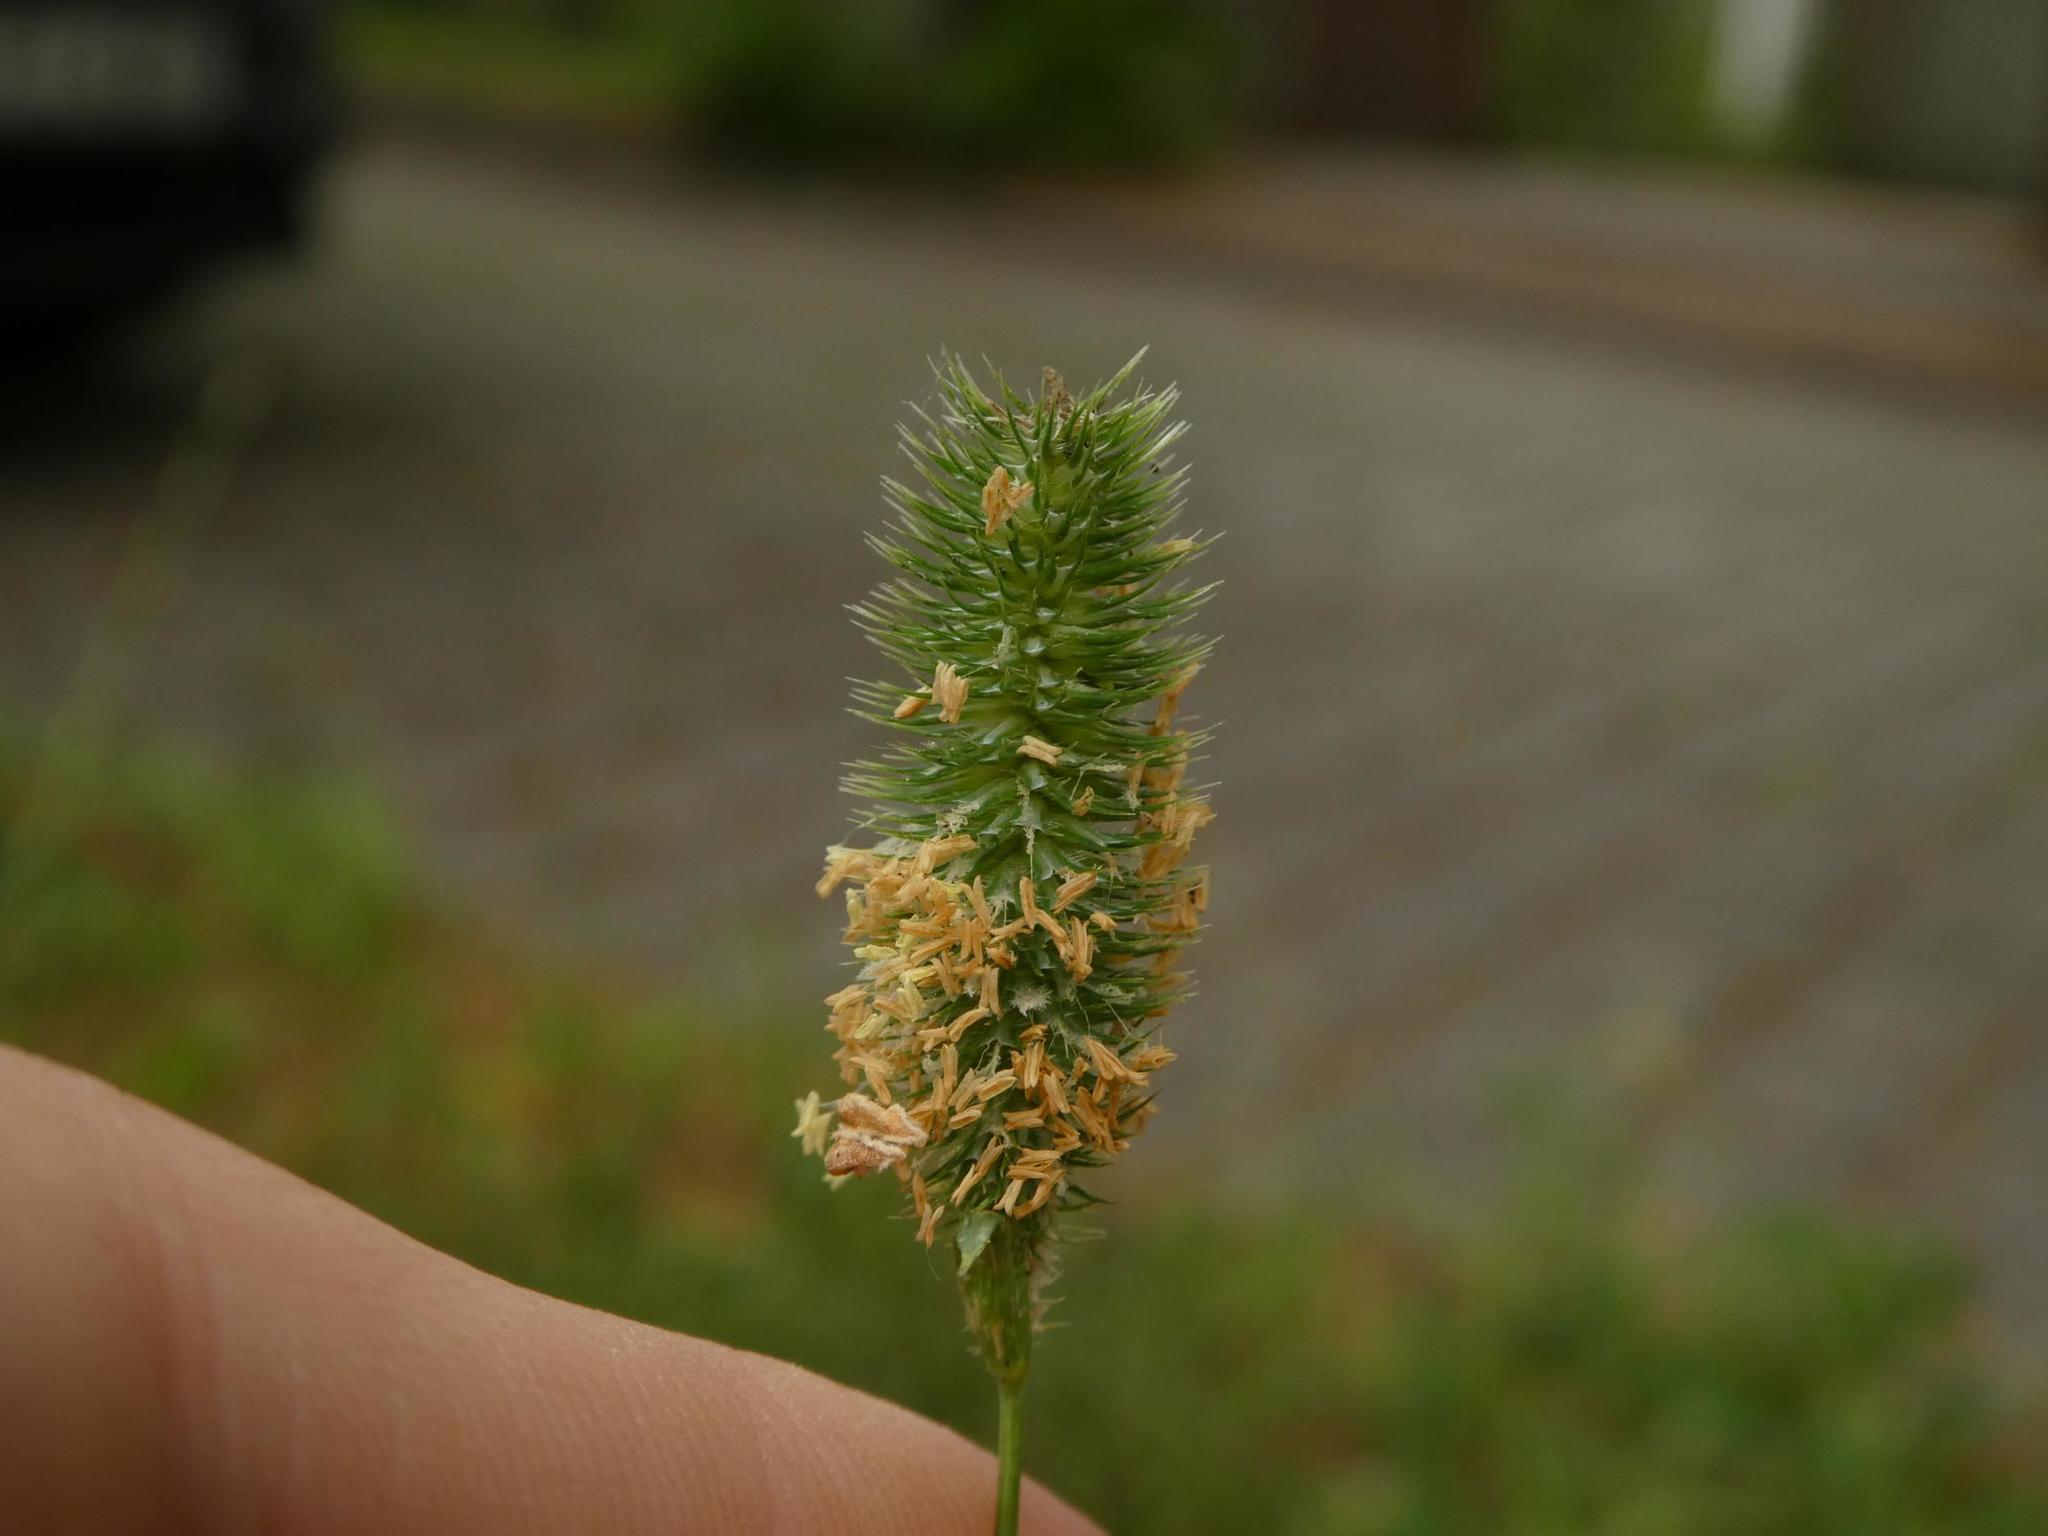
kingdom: Plantae
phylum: Tracheophyta
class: Liliopsida
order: Poales
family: Poaceae
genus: Phleum
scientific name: Phleum pratense
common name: Timothy grass
